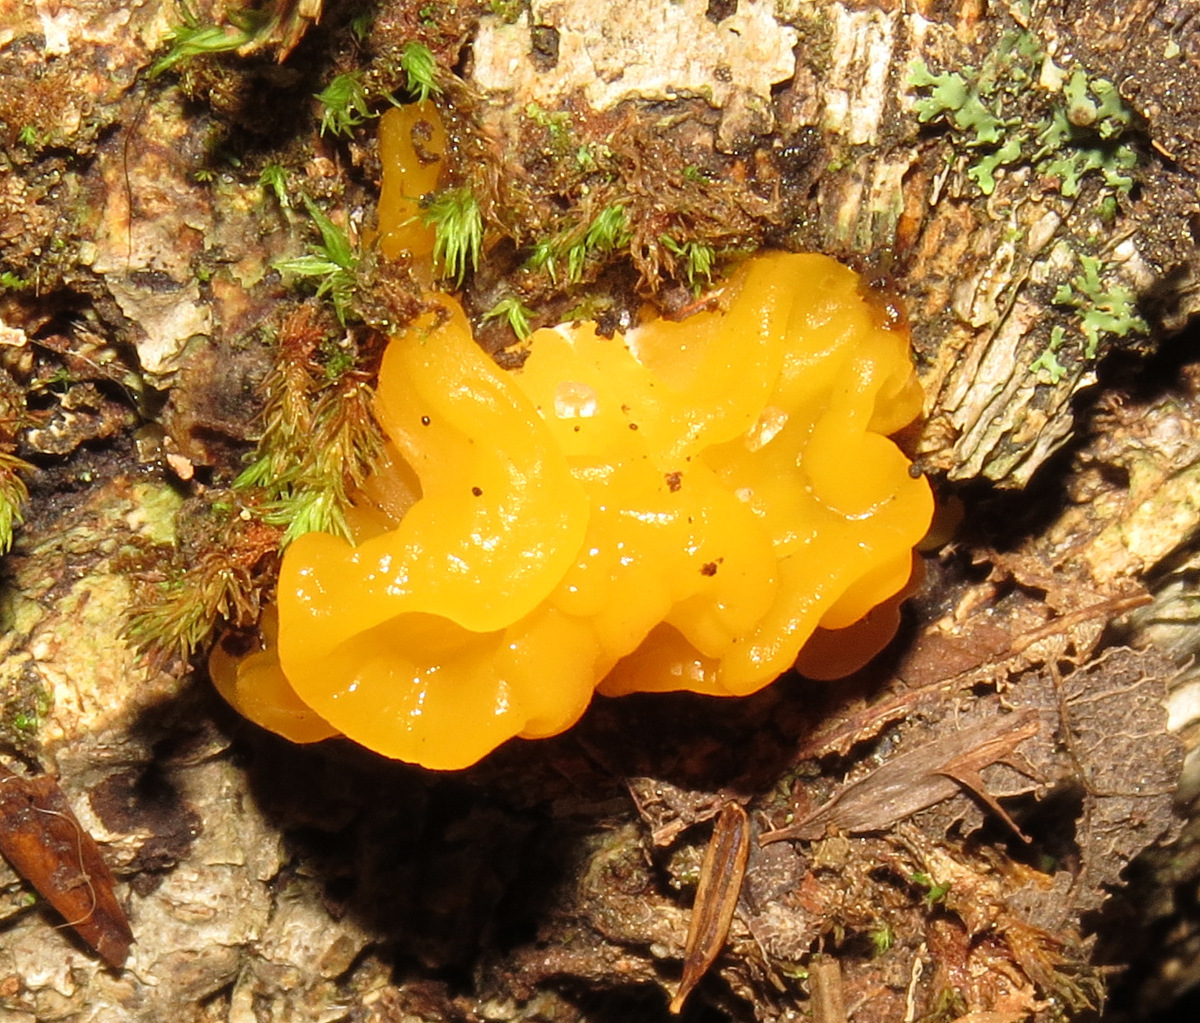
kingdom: Fungi
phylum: Basidiomycota
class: Tremellomycetes
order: Tremellales
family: Tremellaceae
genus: Tremella
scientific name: Tremella mesenterica
